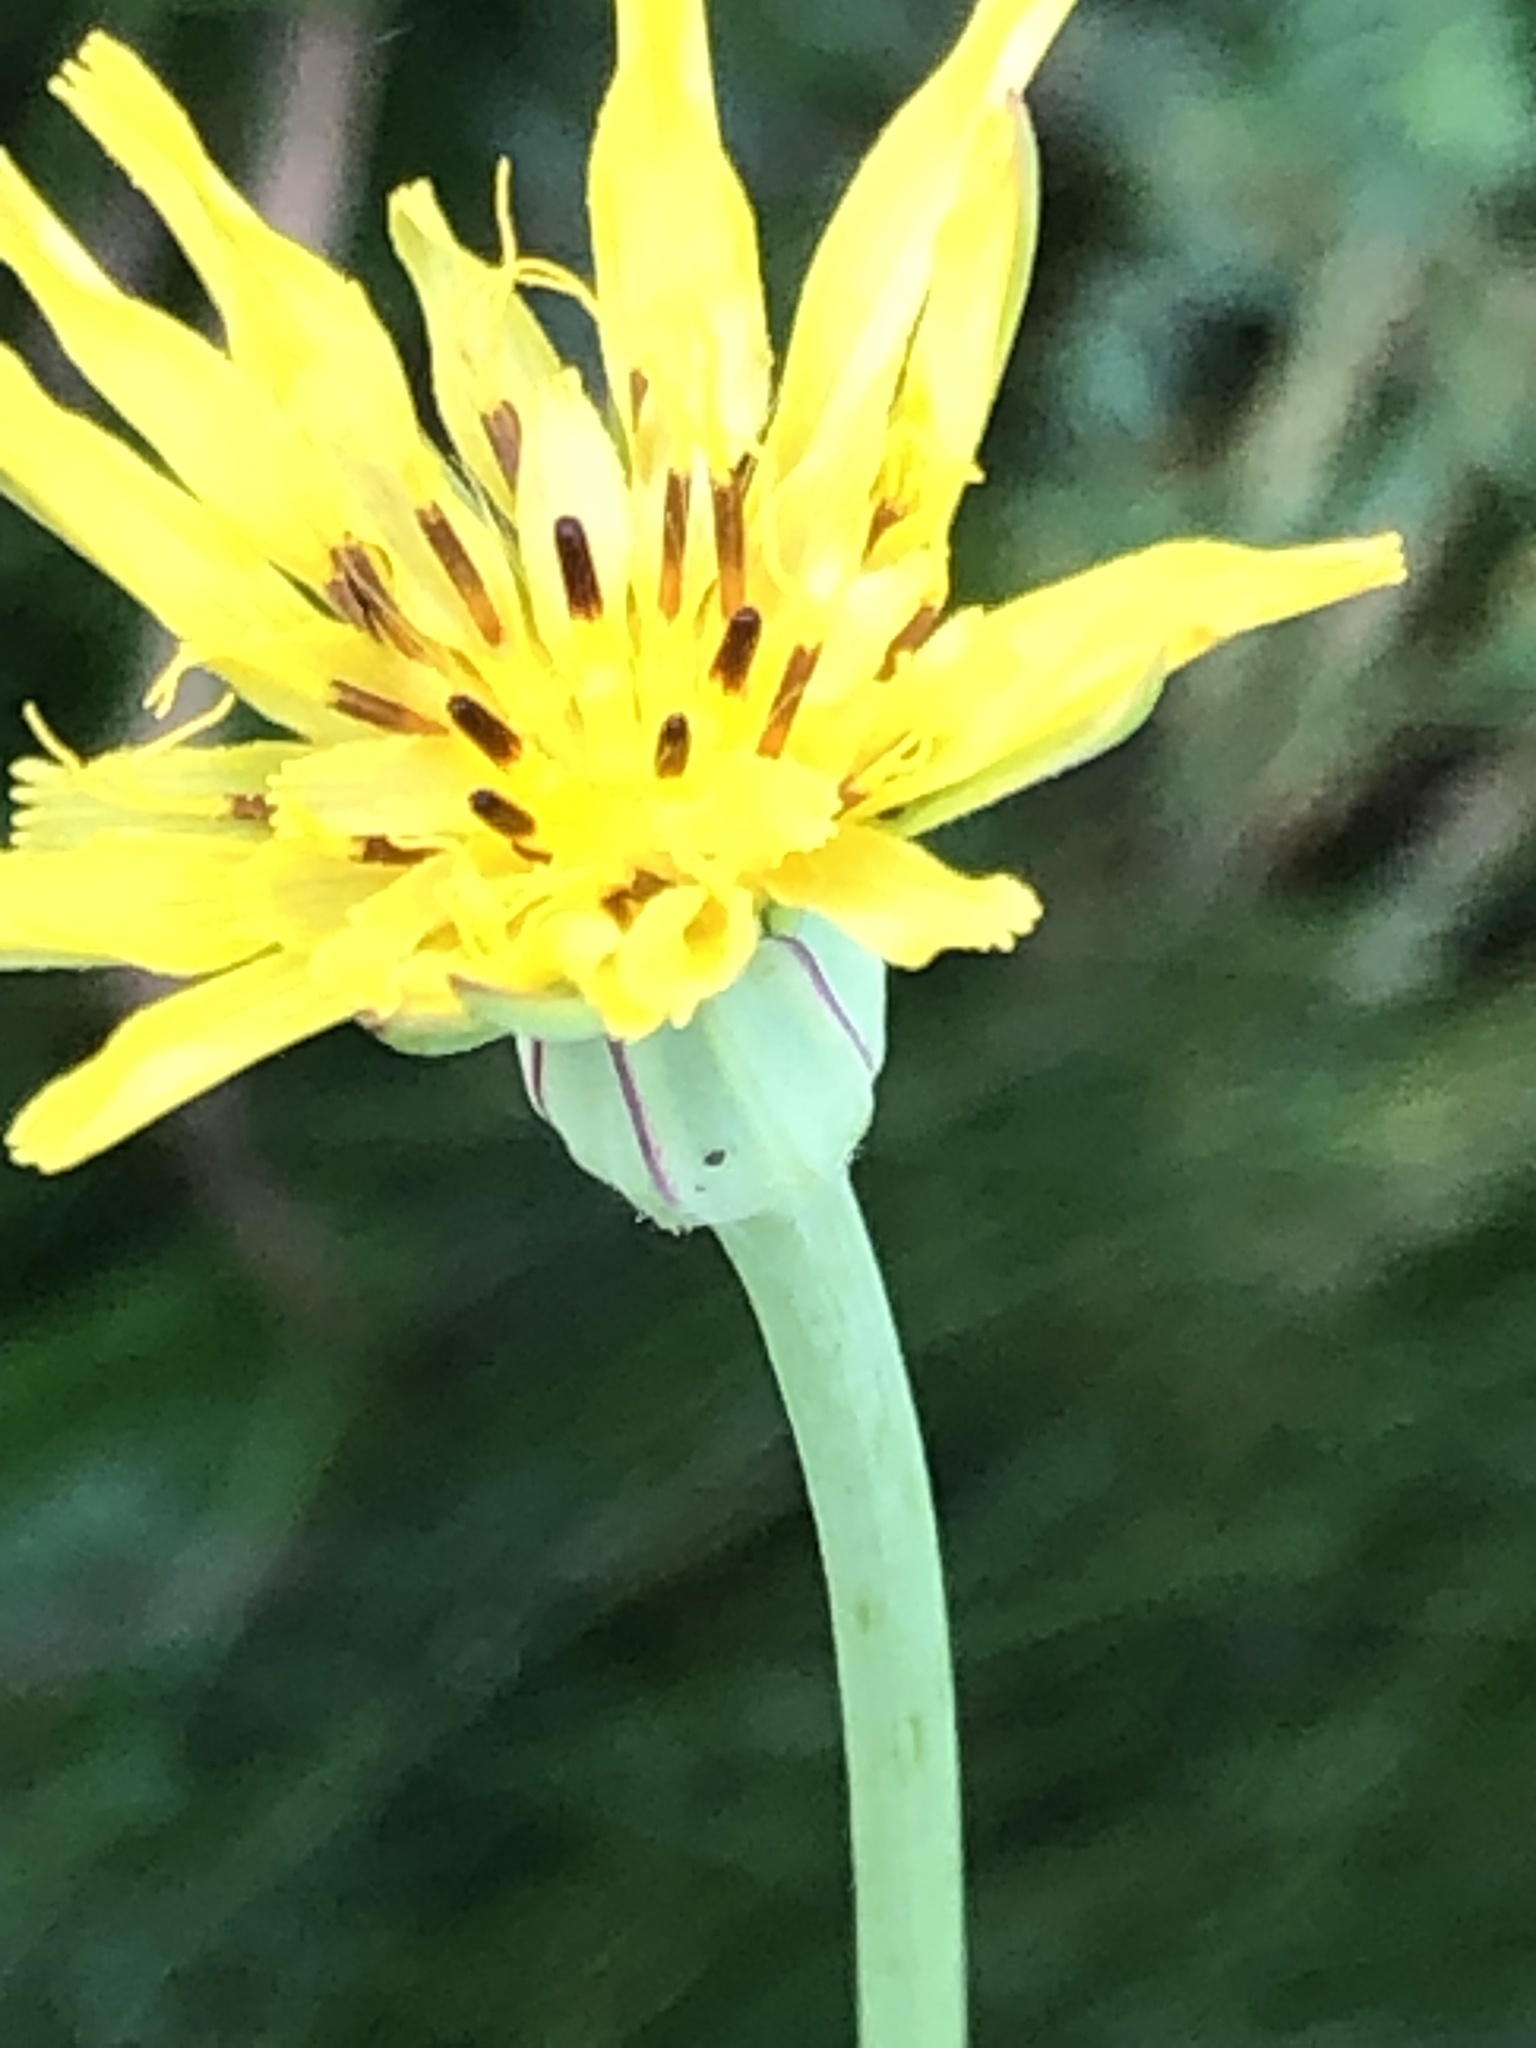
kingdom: Plantae
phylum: Tracheophyta
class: Magnoliopsida
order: Asterales
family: Asteraceae
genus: Tragopogon
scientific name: Tragopogon pratensis
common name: Goat's-beard
